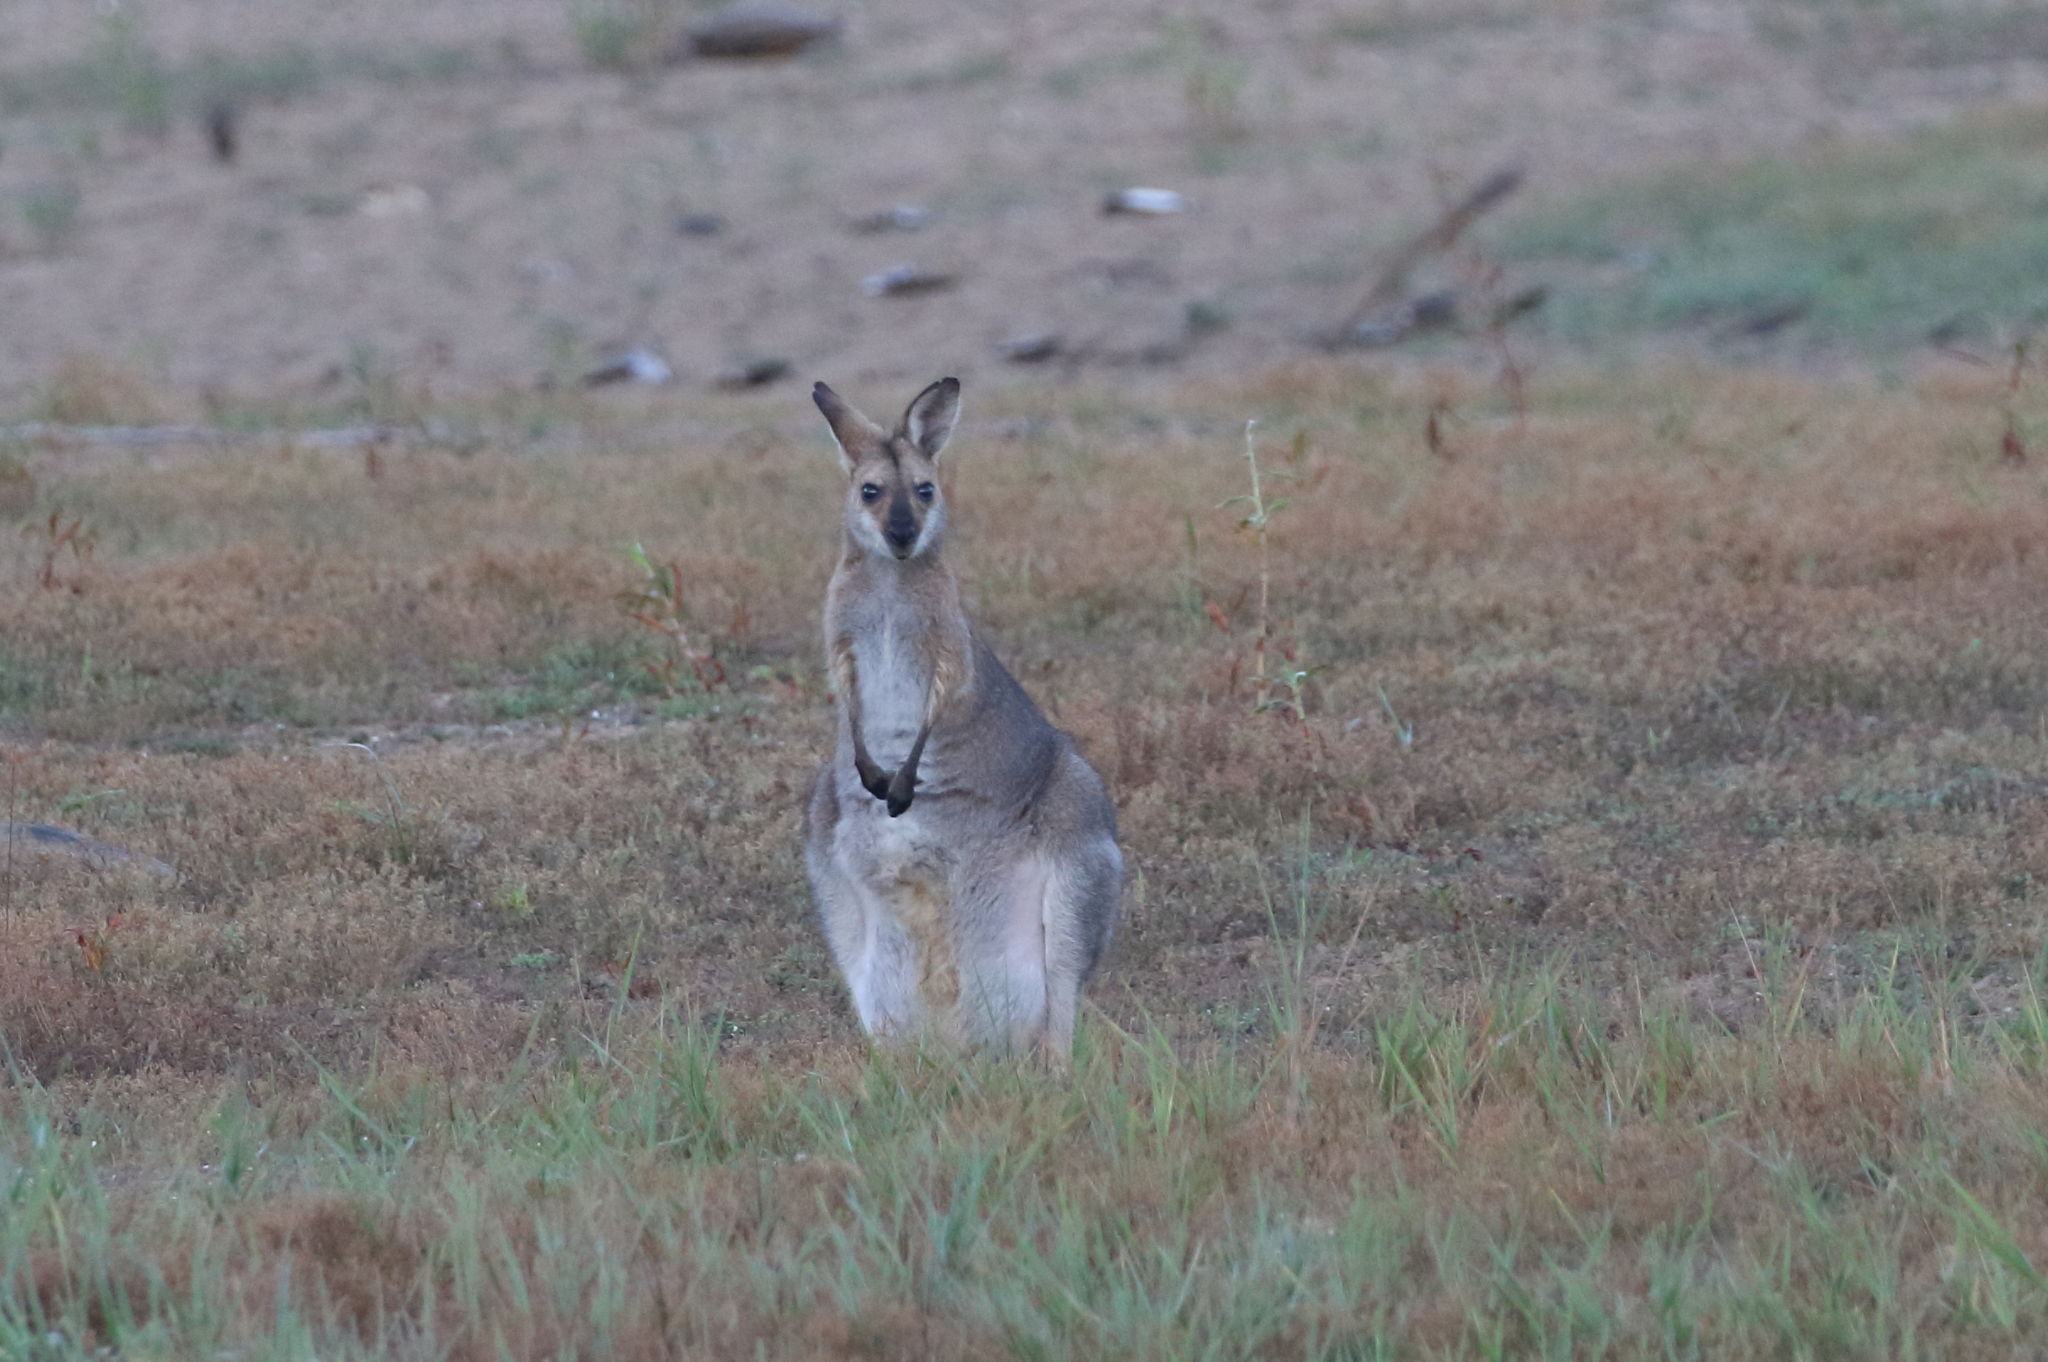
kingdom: Animalia
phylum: Chordata
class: Mammalia
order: Diprotodontia
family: Macropodidae
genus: Notamacropus
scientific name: Notamacropus rufogriseus
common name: Red-necked wallaby
